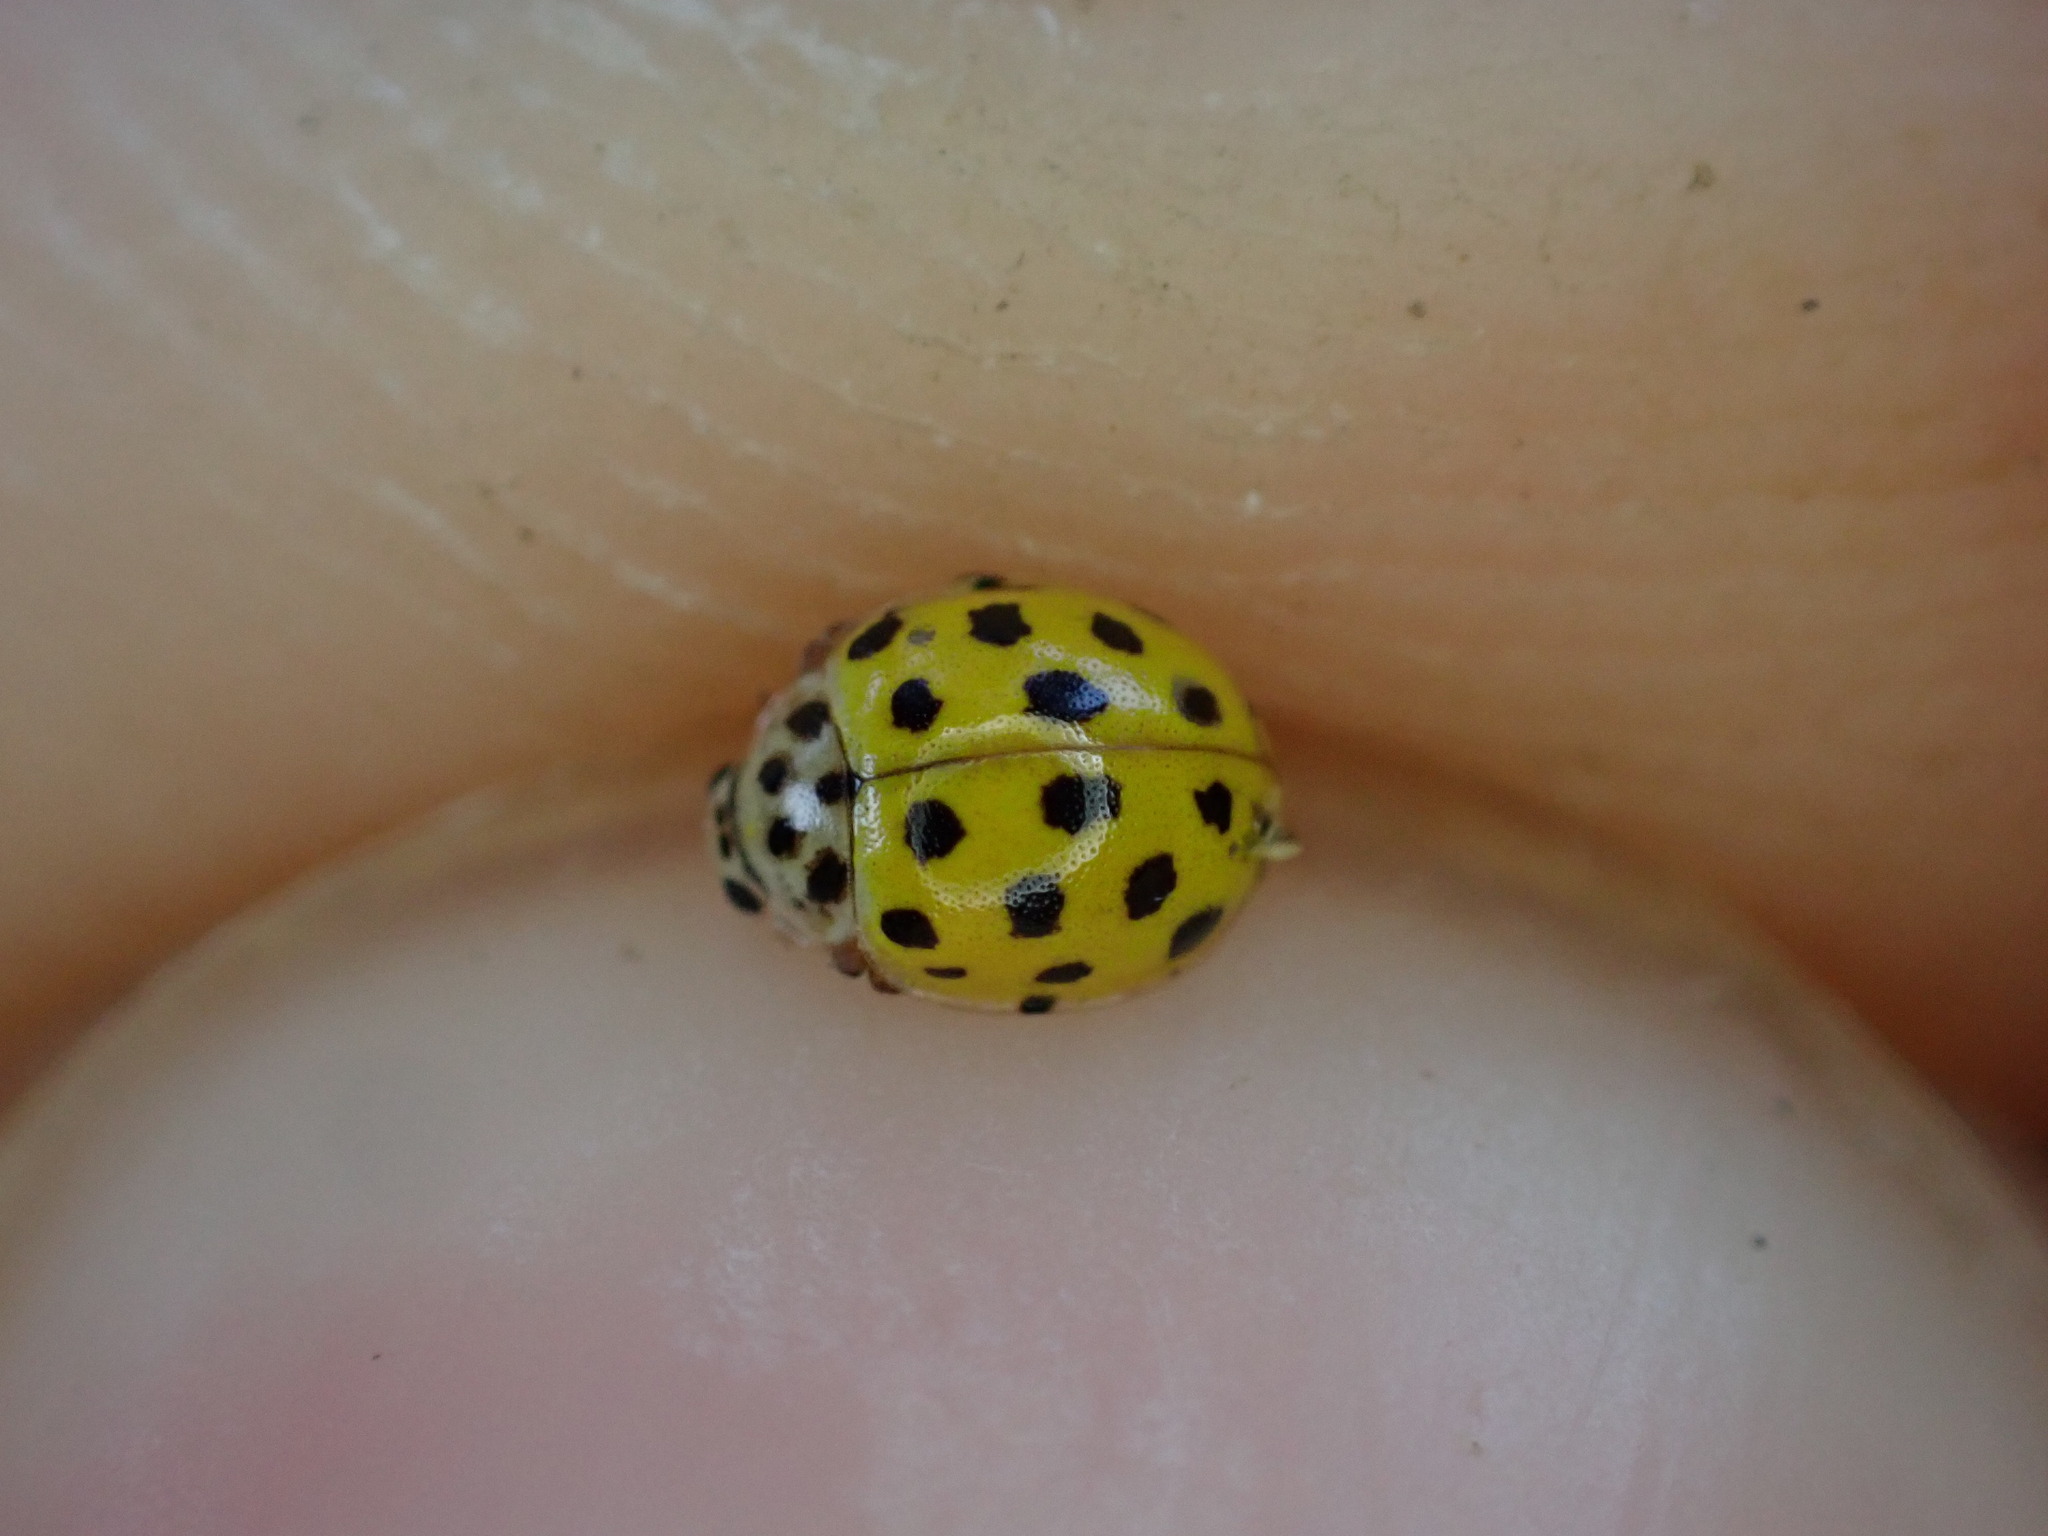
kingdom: Animalia
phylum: Arthropoda
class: Insecta
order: Coleoptera
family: Coccinellidae
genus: Psyllobora
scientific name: Psyllobora vigintiduopunctata
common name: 22-spot ladybird
